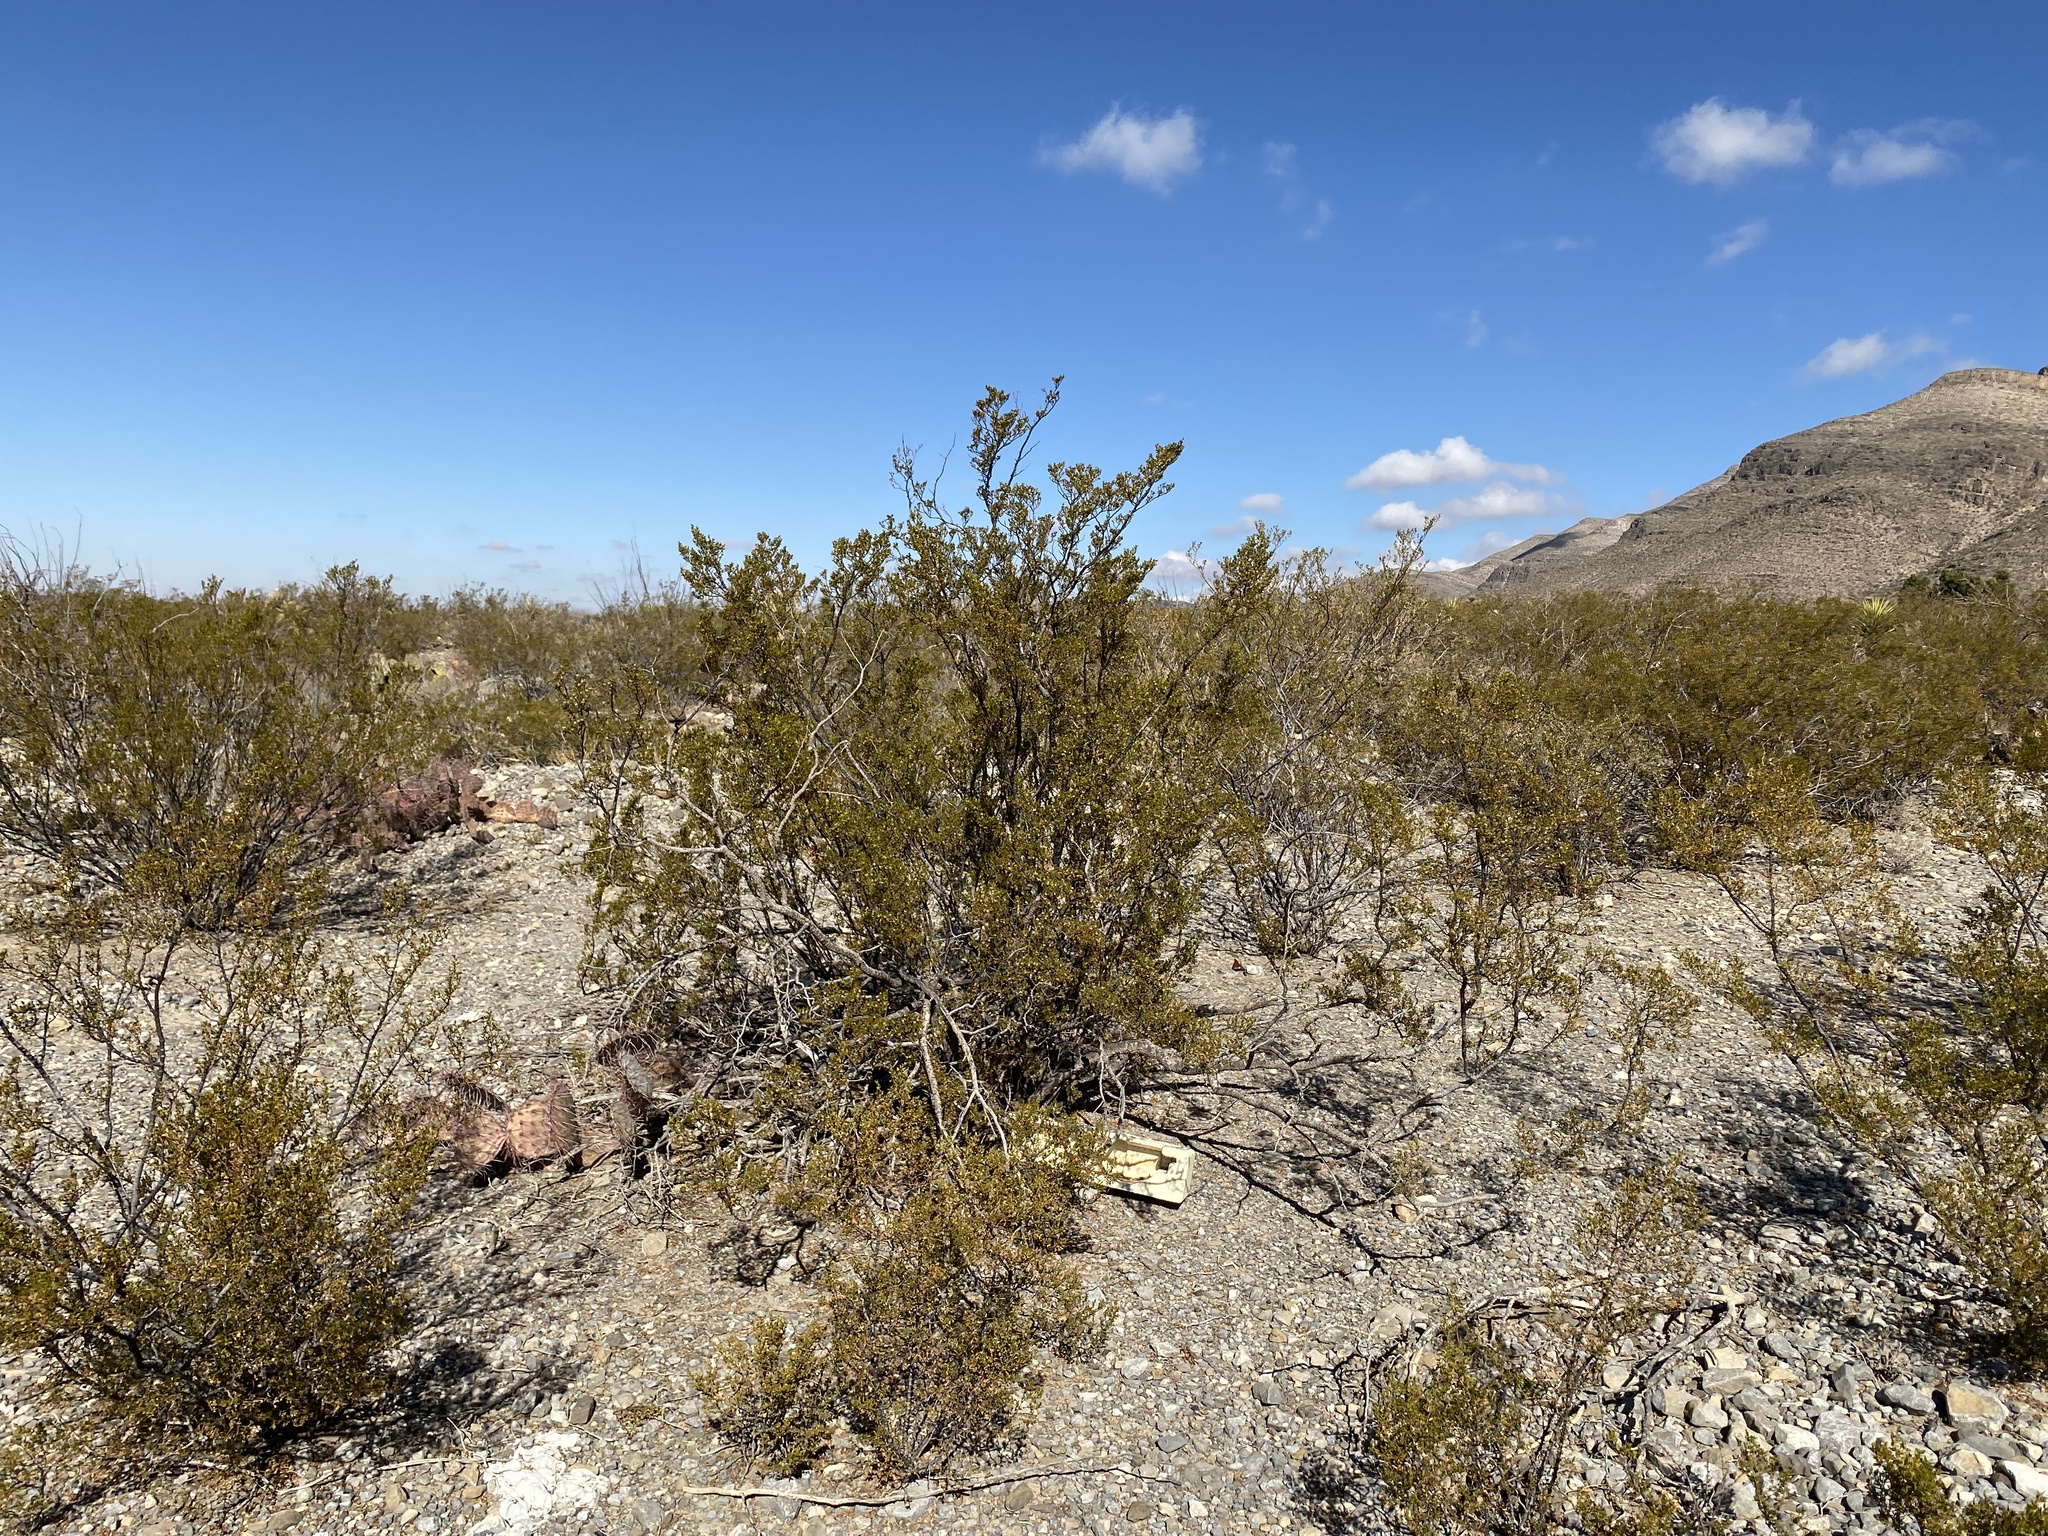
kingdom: Plantae
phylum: Tracheophyta
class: Magnoliopsida
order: Zygophyllales
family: Zygophyllaceae
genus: Larrea
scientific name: Larrea tridentata
